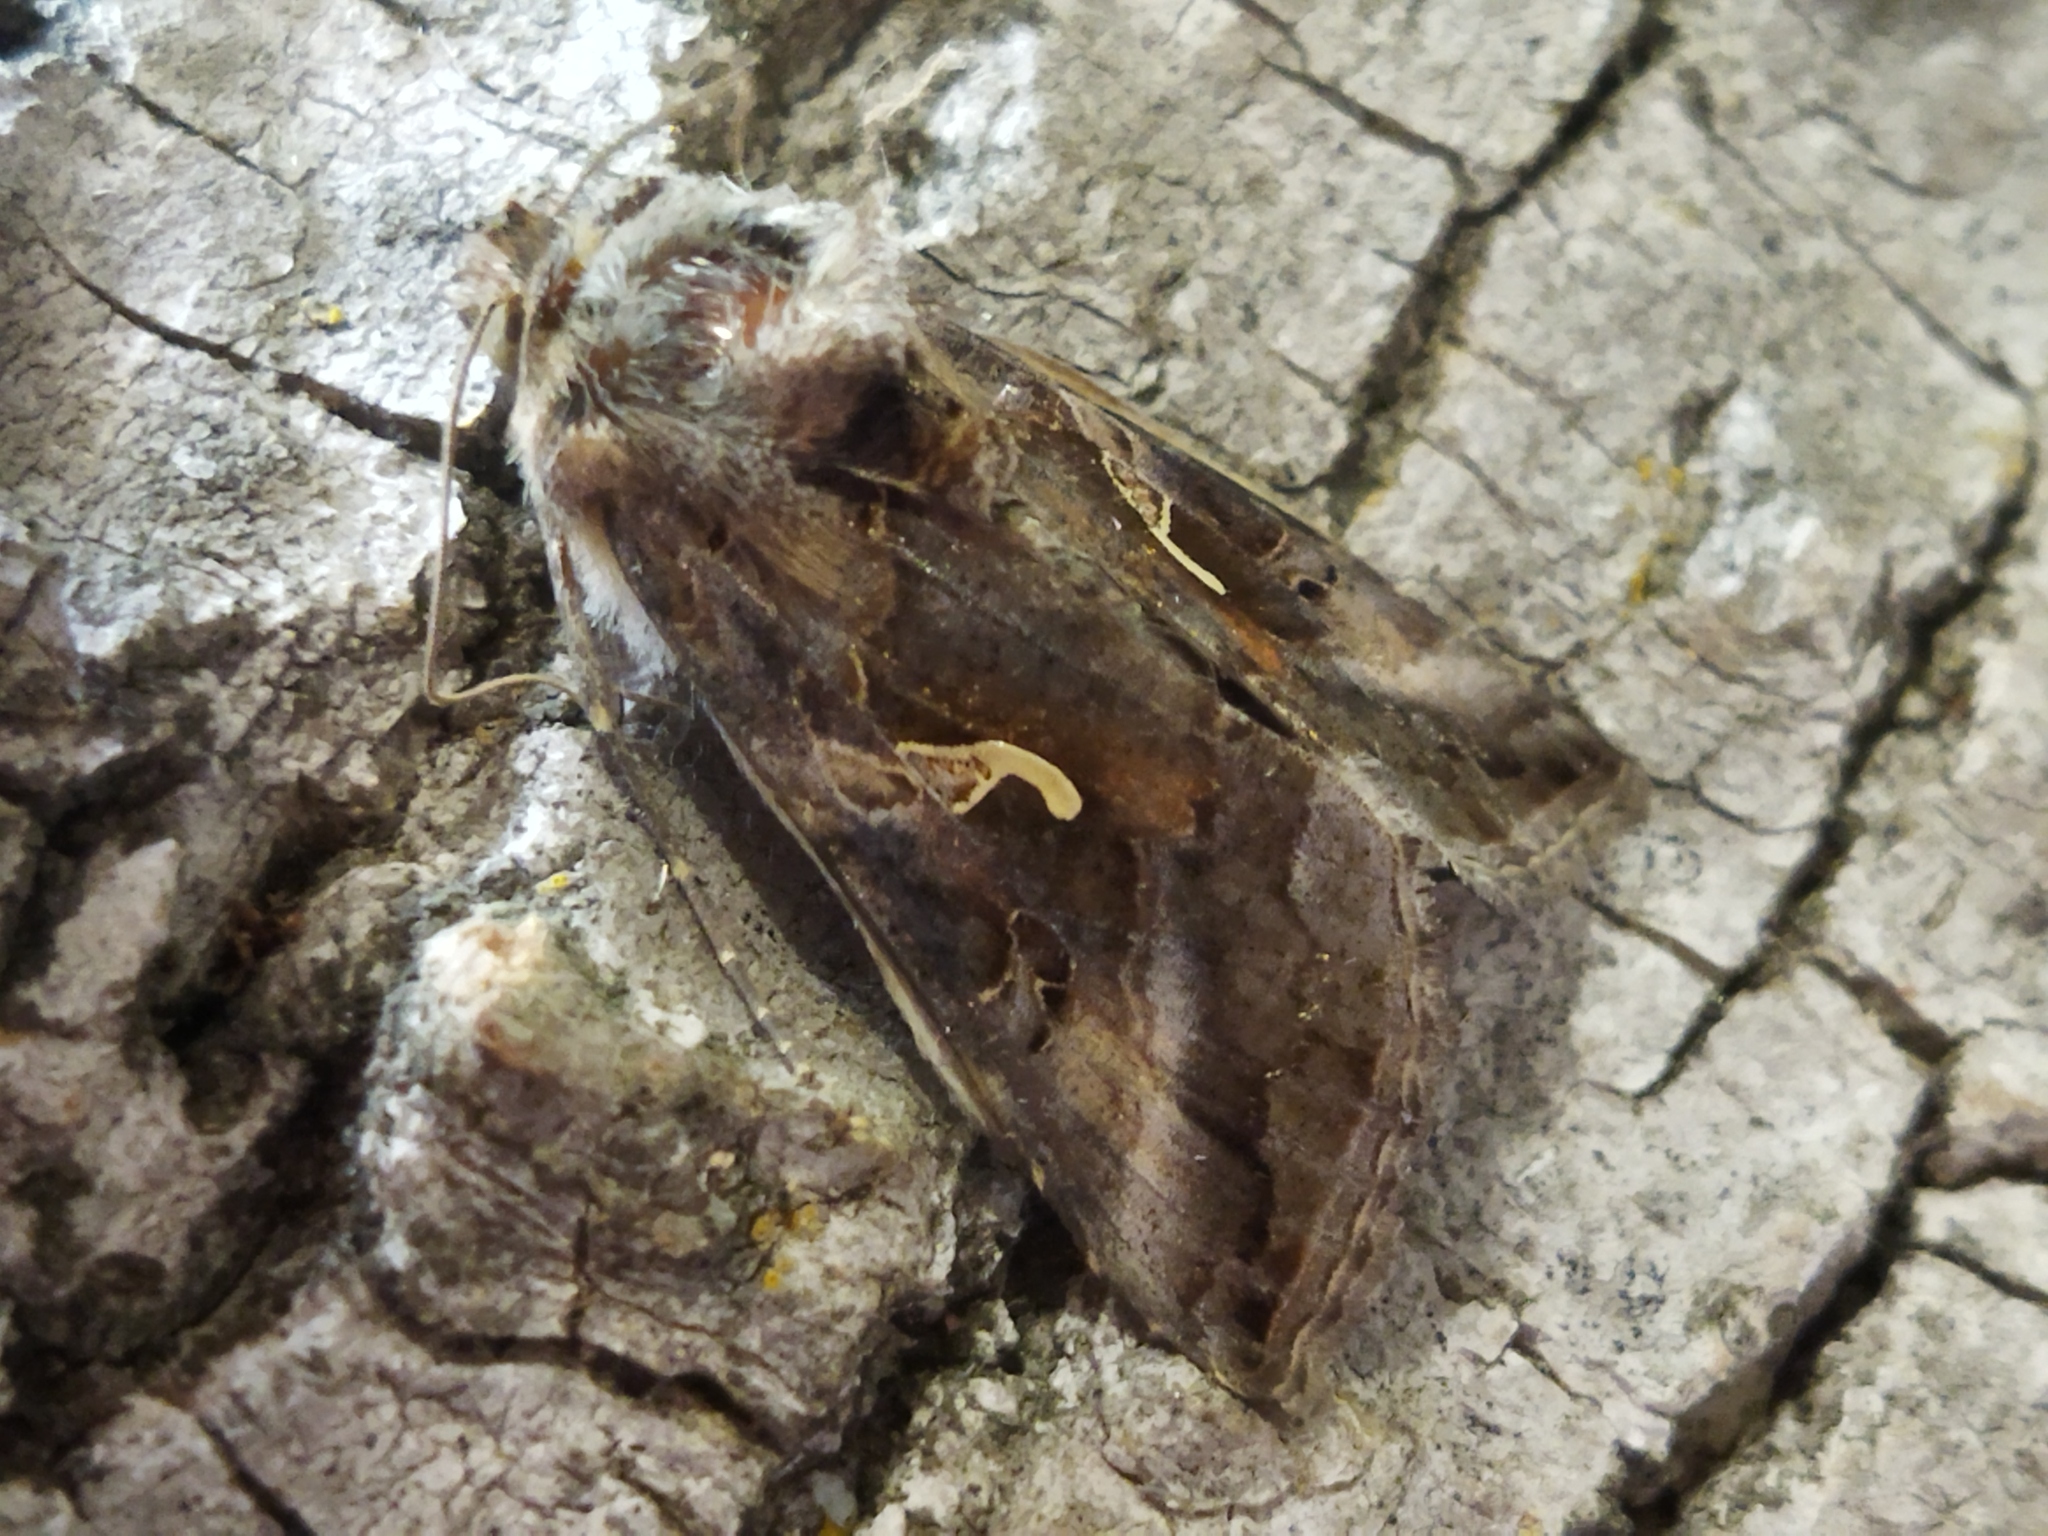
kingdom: Animalia
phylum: Arthropoda
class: Insecta
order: Lepidoptera
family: Noctuidae
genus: Autographa
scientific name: Autographa gamma
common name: Silver y
